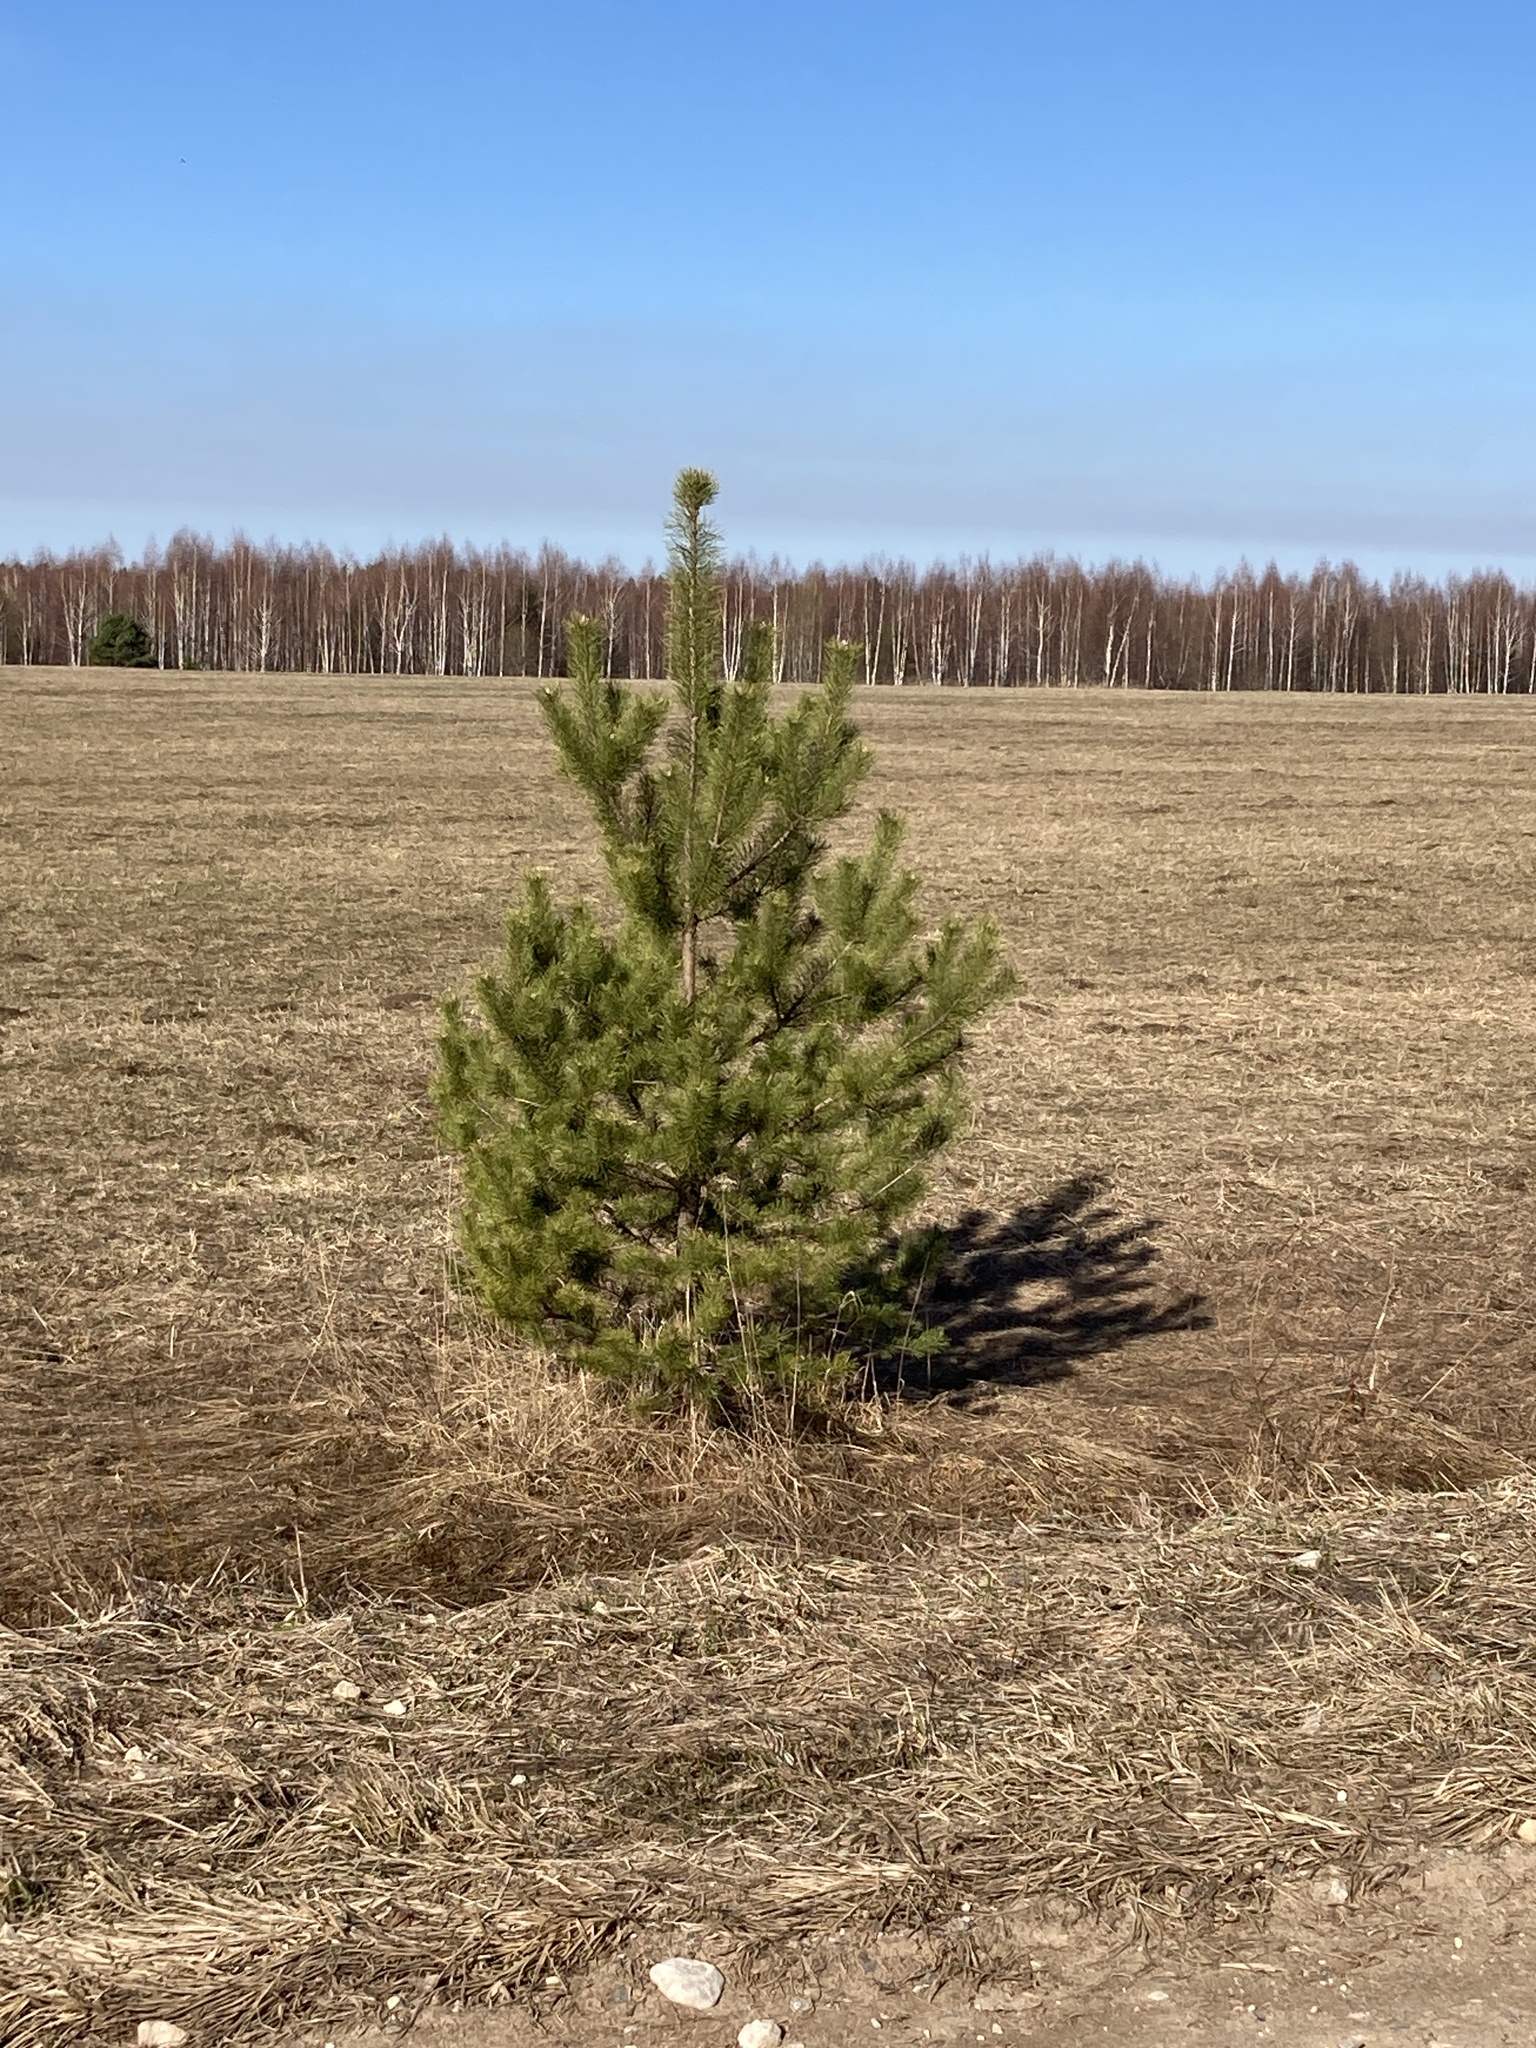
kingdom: Plantae
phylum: Tracheophyta
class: Pinopsida
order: Pinales
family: Pinaceae
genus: Pinus
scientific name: Pinus sylvestris
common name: Scots pine
